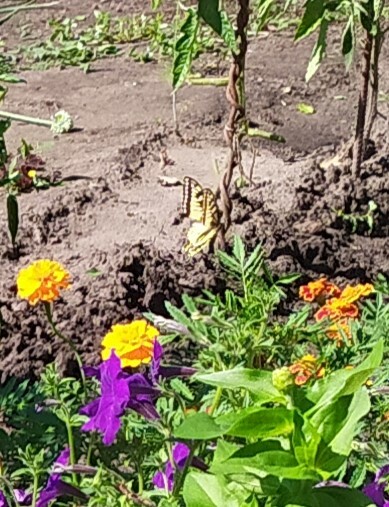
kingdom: Animalia
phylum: Arthropoda
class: Insecta
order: Lepidoptera
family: Papilionidae
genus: Papilio
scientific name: Papilio machaon
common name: Swallowtail
